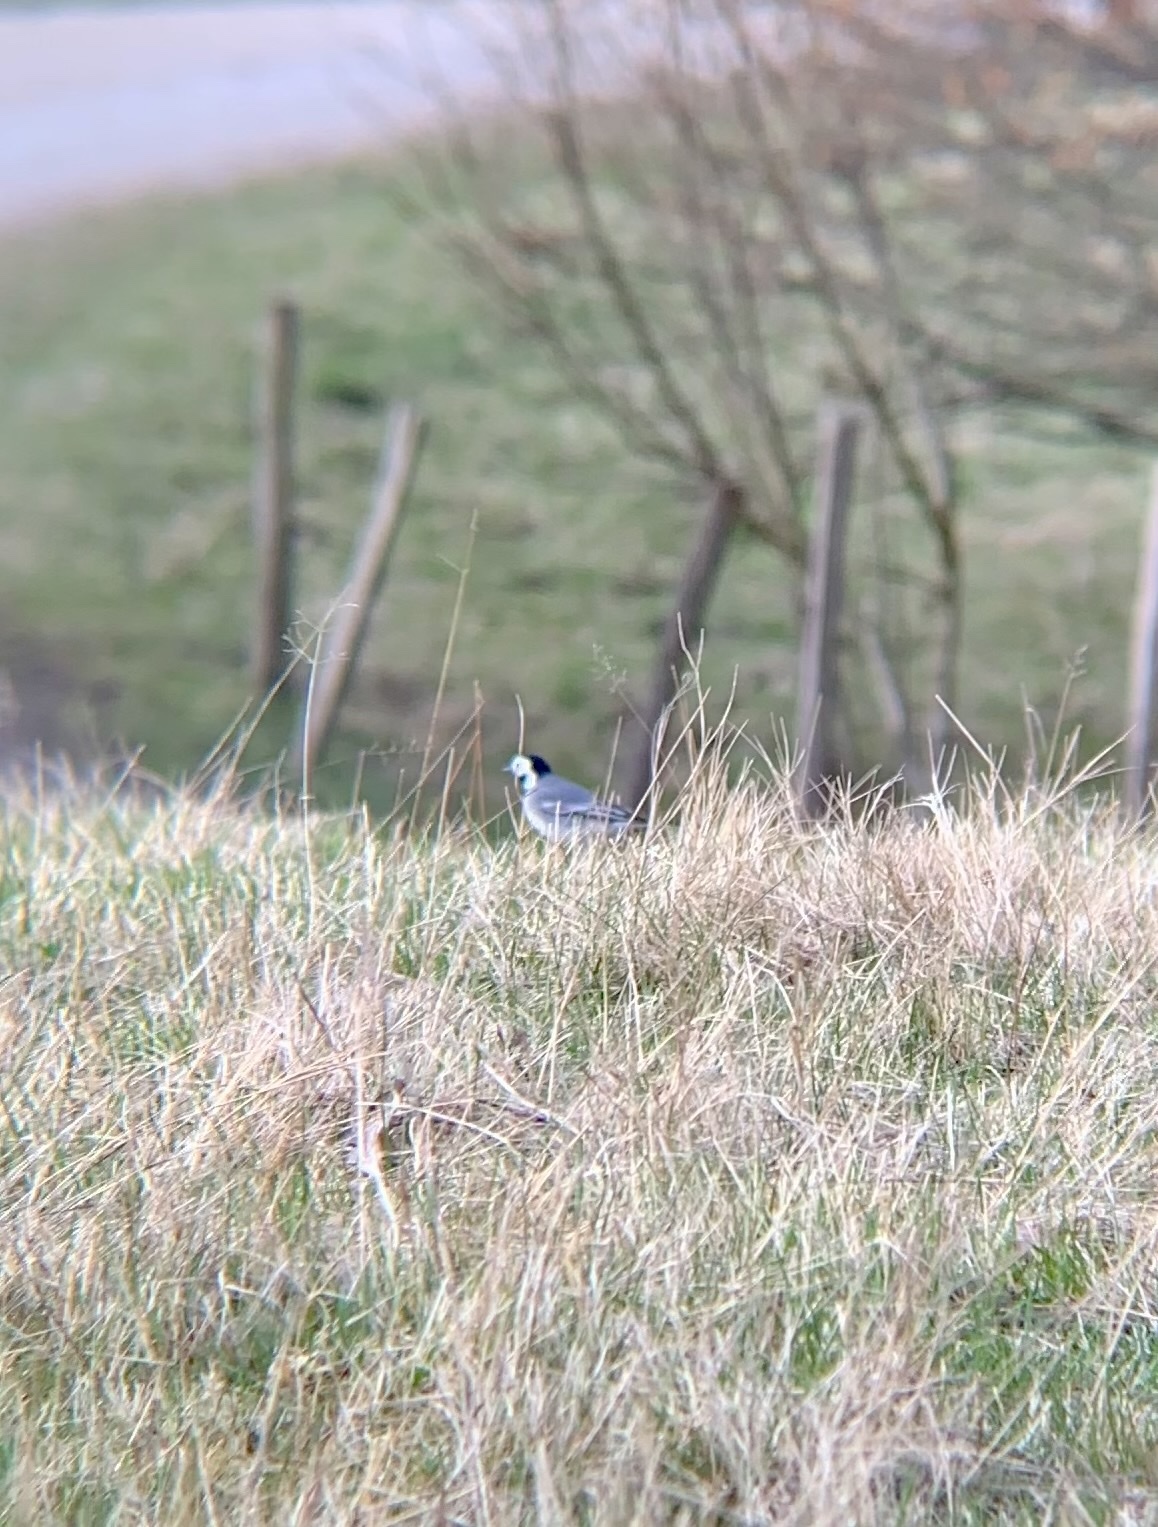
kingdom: Animalia
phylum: Chordata
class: Aves
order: Passeriformes
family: Motacillidae
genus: Motacilla
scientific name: Motacilla alba
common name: White wagtail
